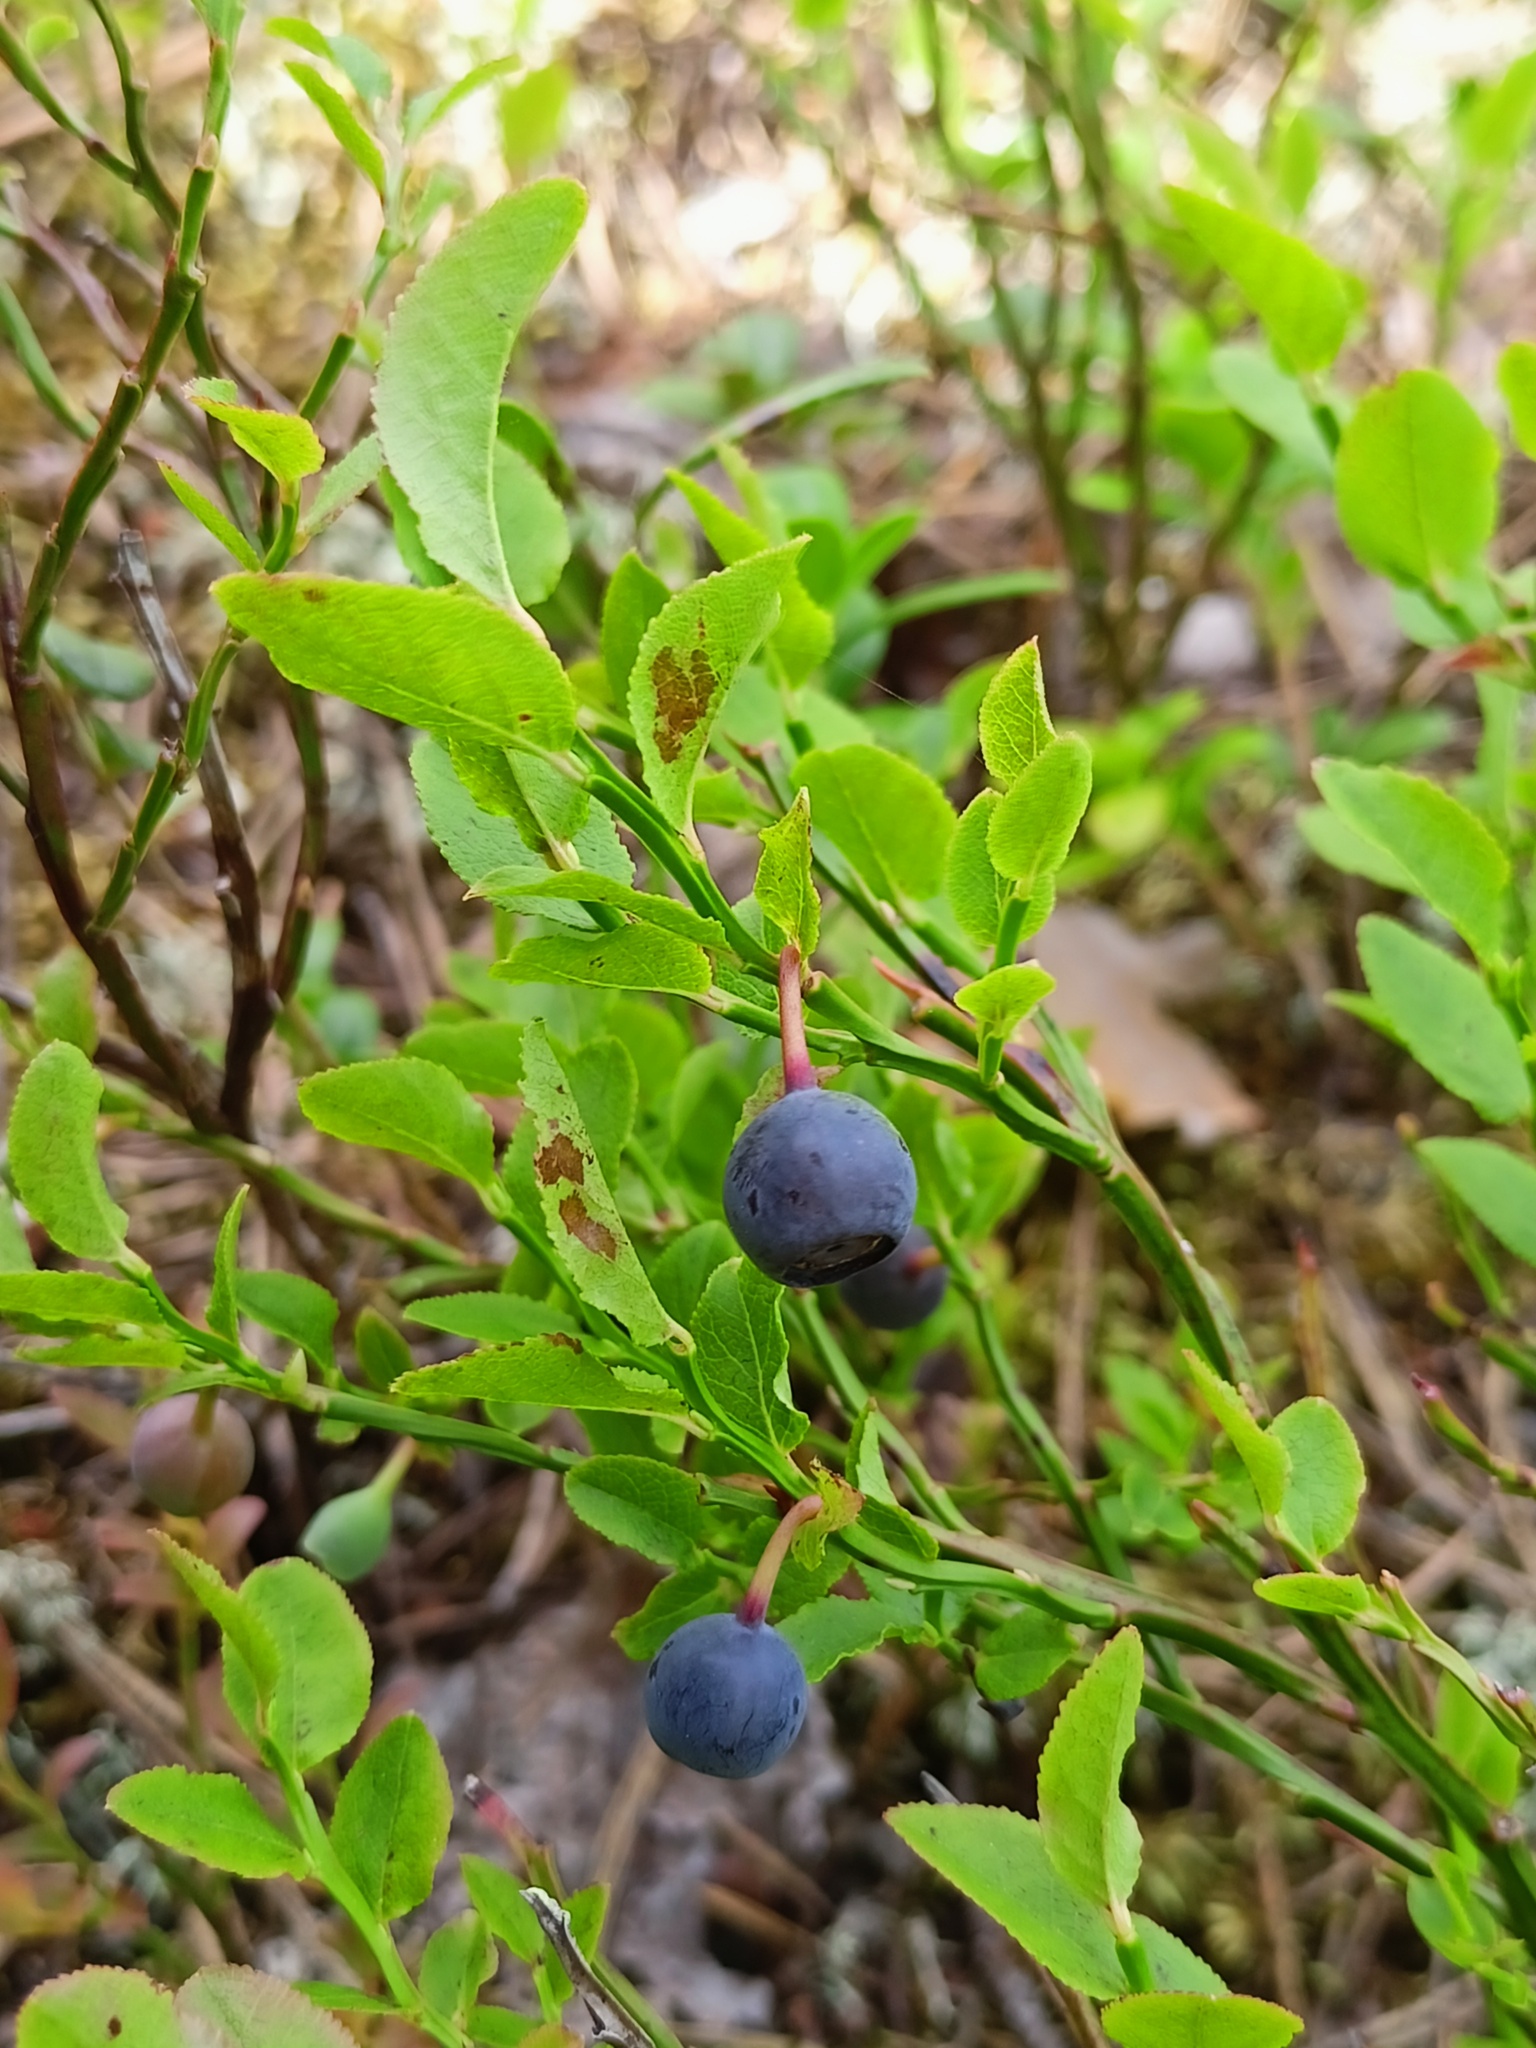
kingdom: Plantae
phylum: Tracheophyta
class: Magnoliopsida
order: Ericales
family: Ericaceae
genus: Vaccinium
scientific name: Vaccinium myrtillus
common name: Bilberry
